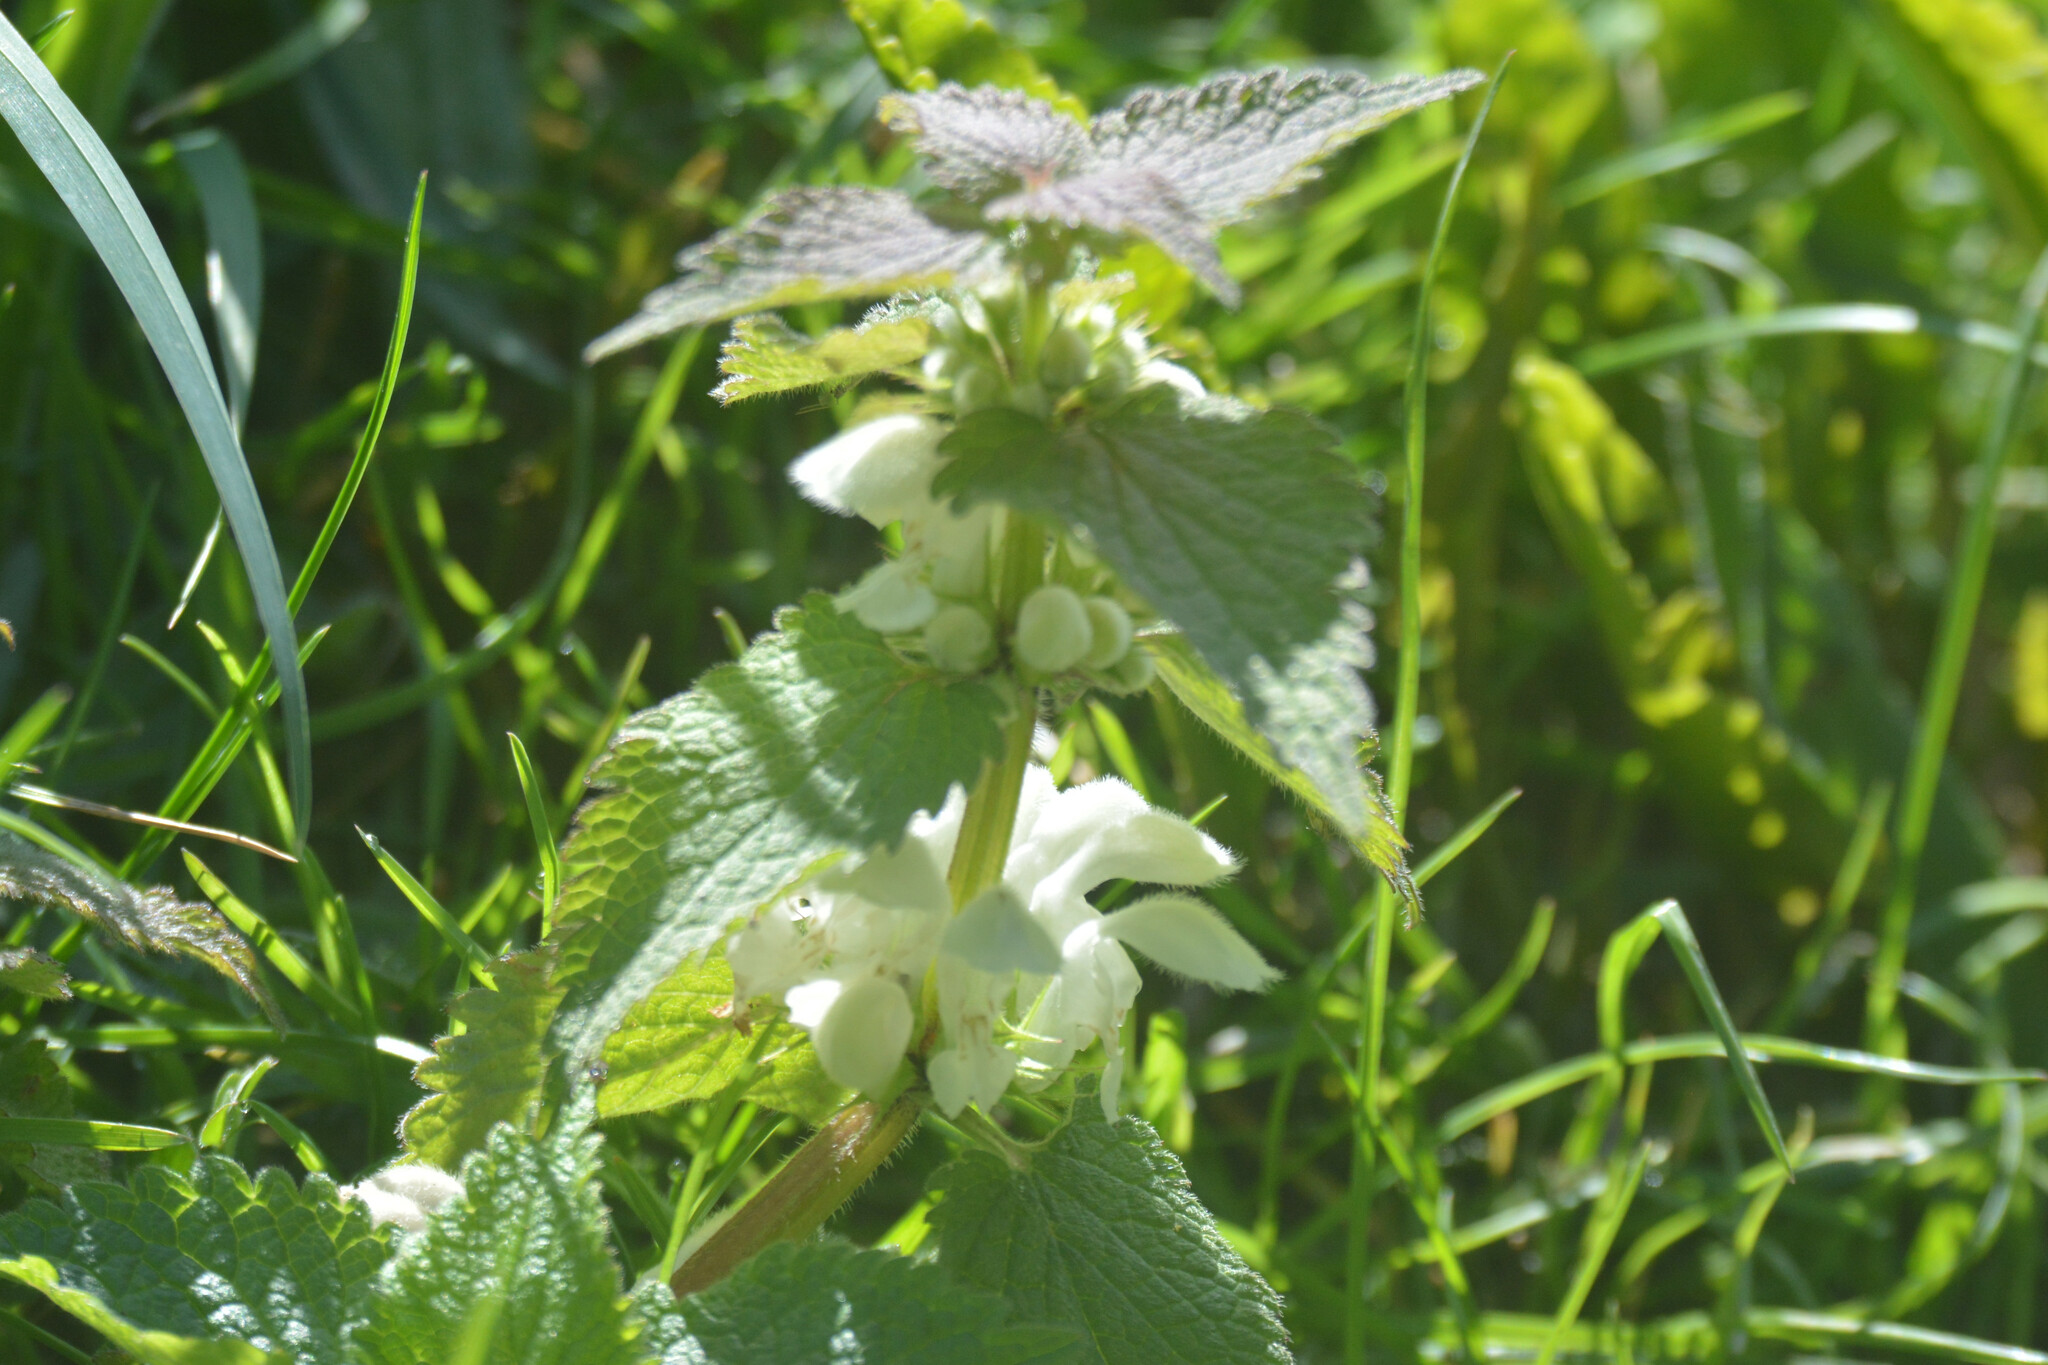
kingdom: Plantae
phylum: Tracheophyta
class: Magnoliopsida
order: Lamiales
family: Lamiaceae
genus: Lamium
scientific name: Lamium album
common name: White dead-nettle
